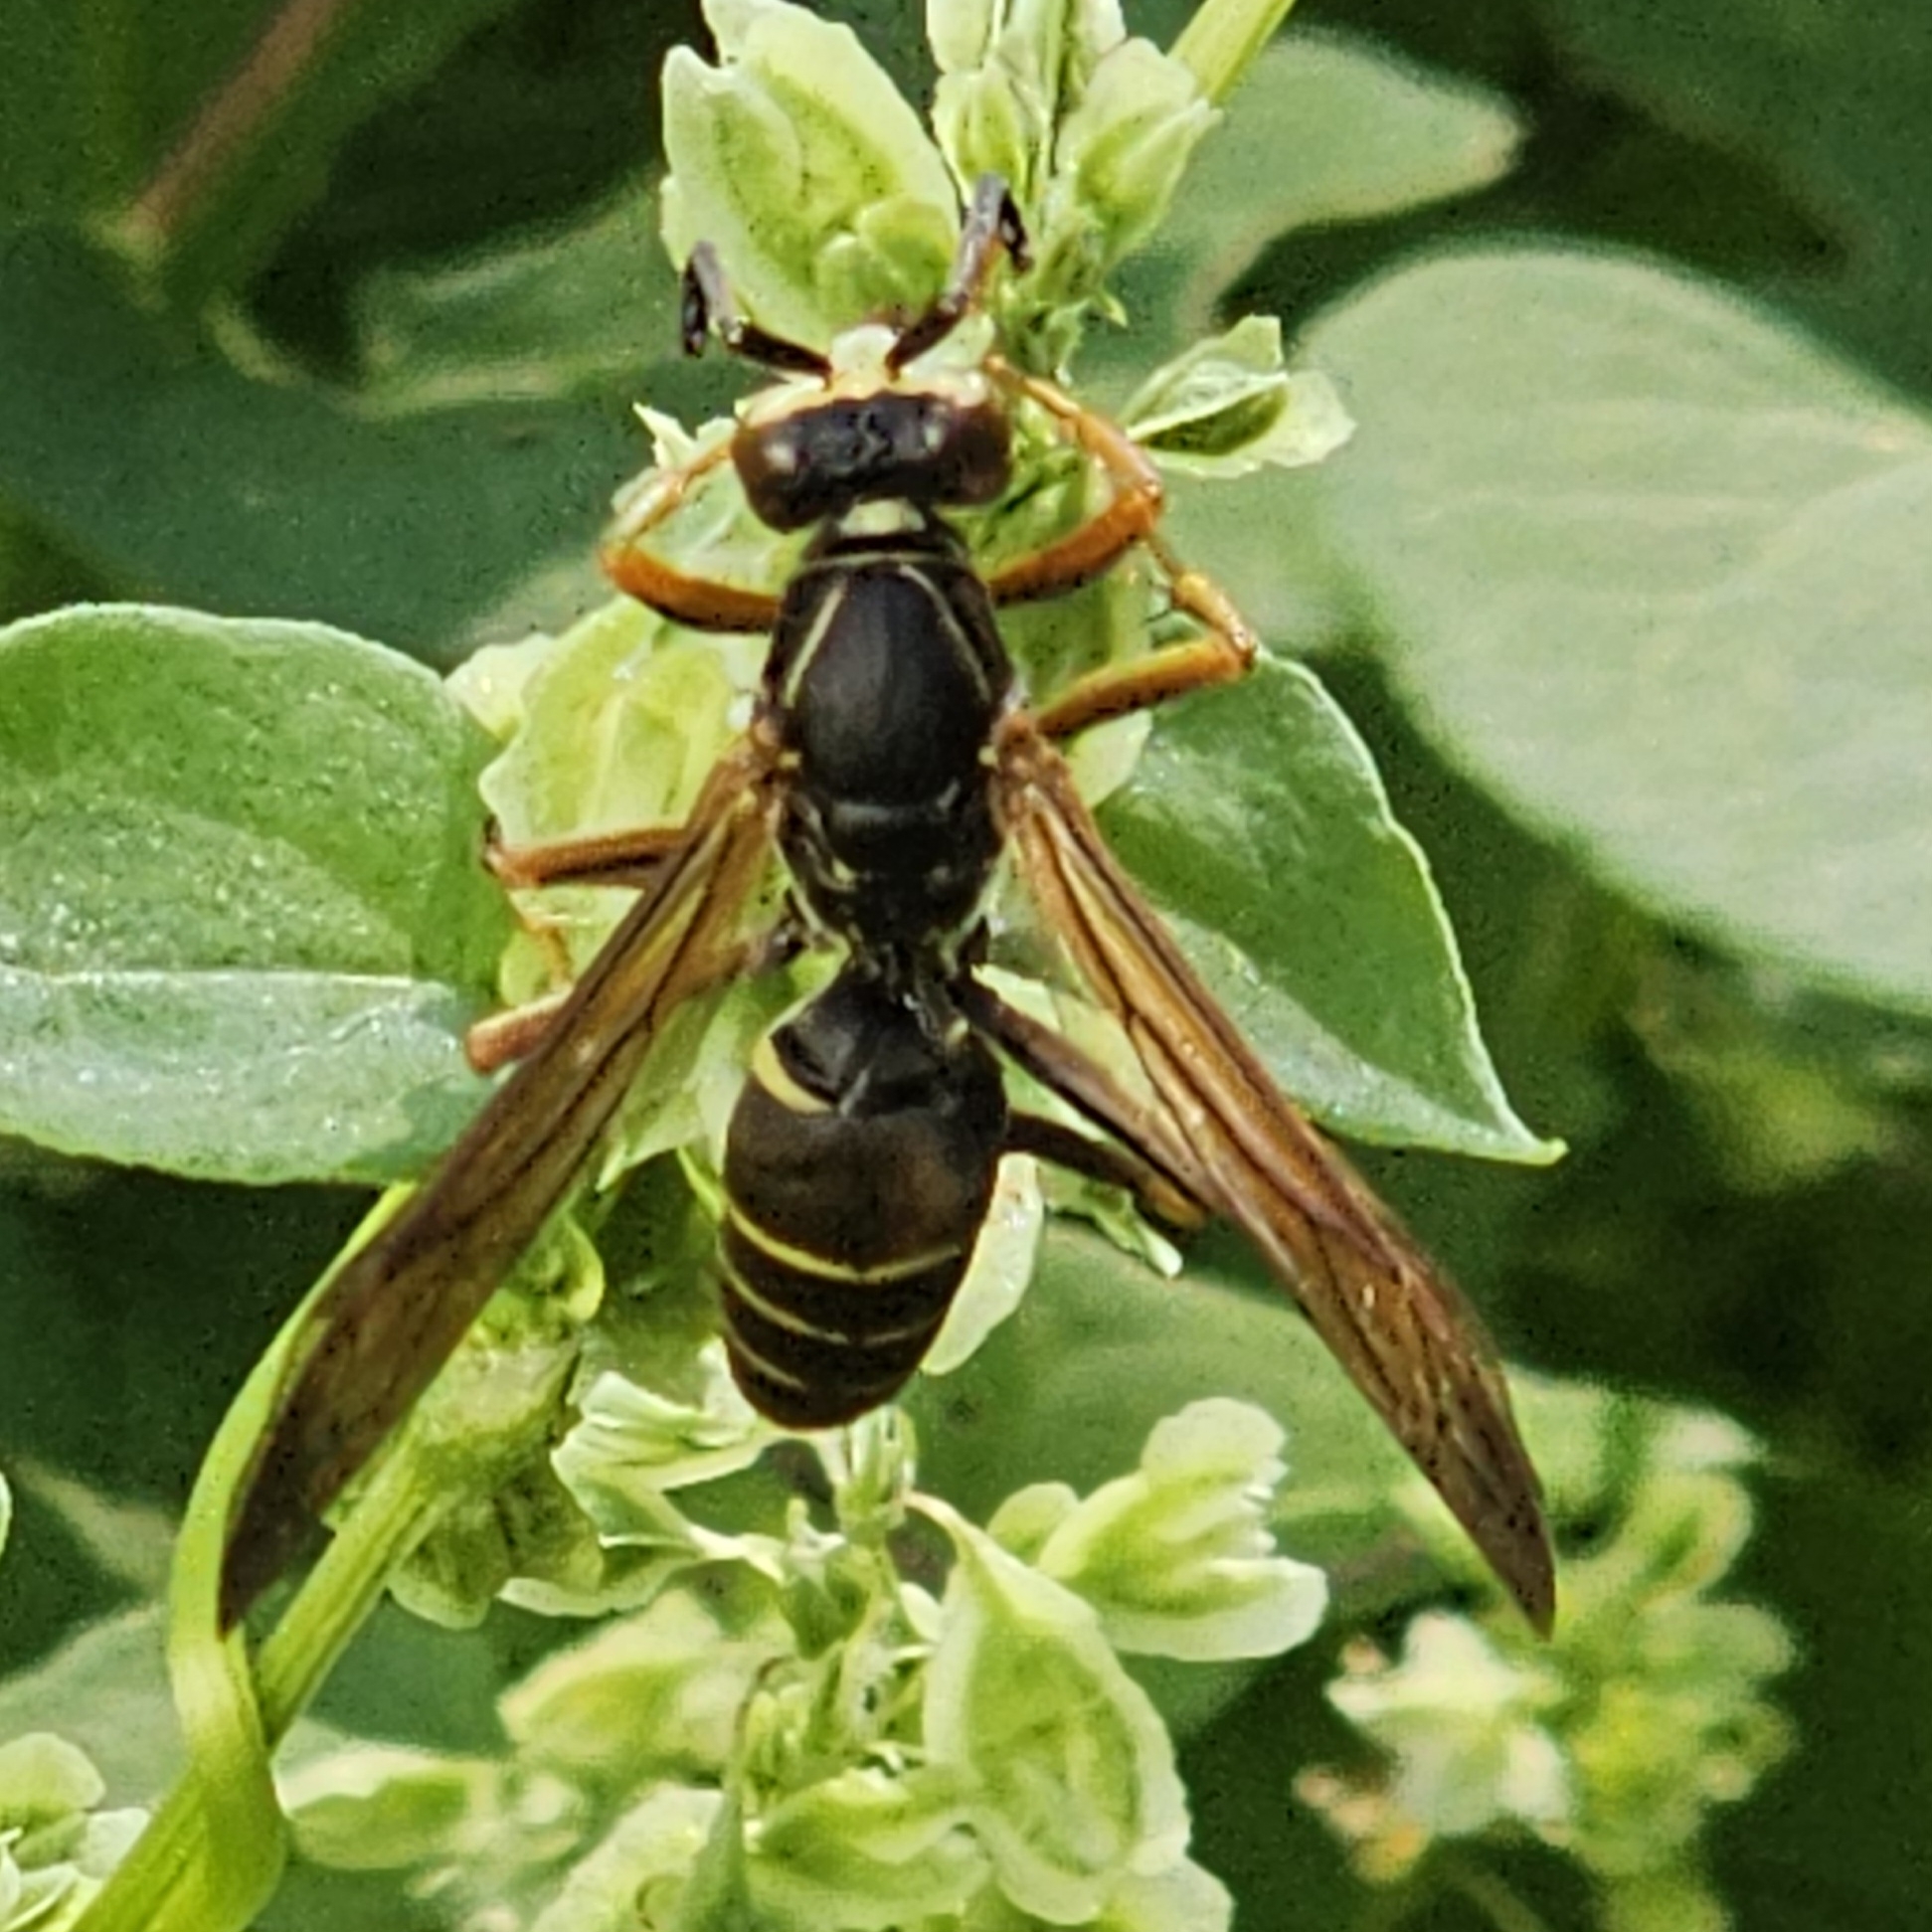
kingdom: Animalia
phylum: Arthropoda
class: Insecta
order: Hymenoptera
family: Eumenidae
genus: Polistes
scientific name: Polistes fuscatus
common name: Dark paper wasp
